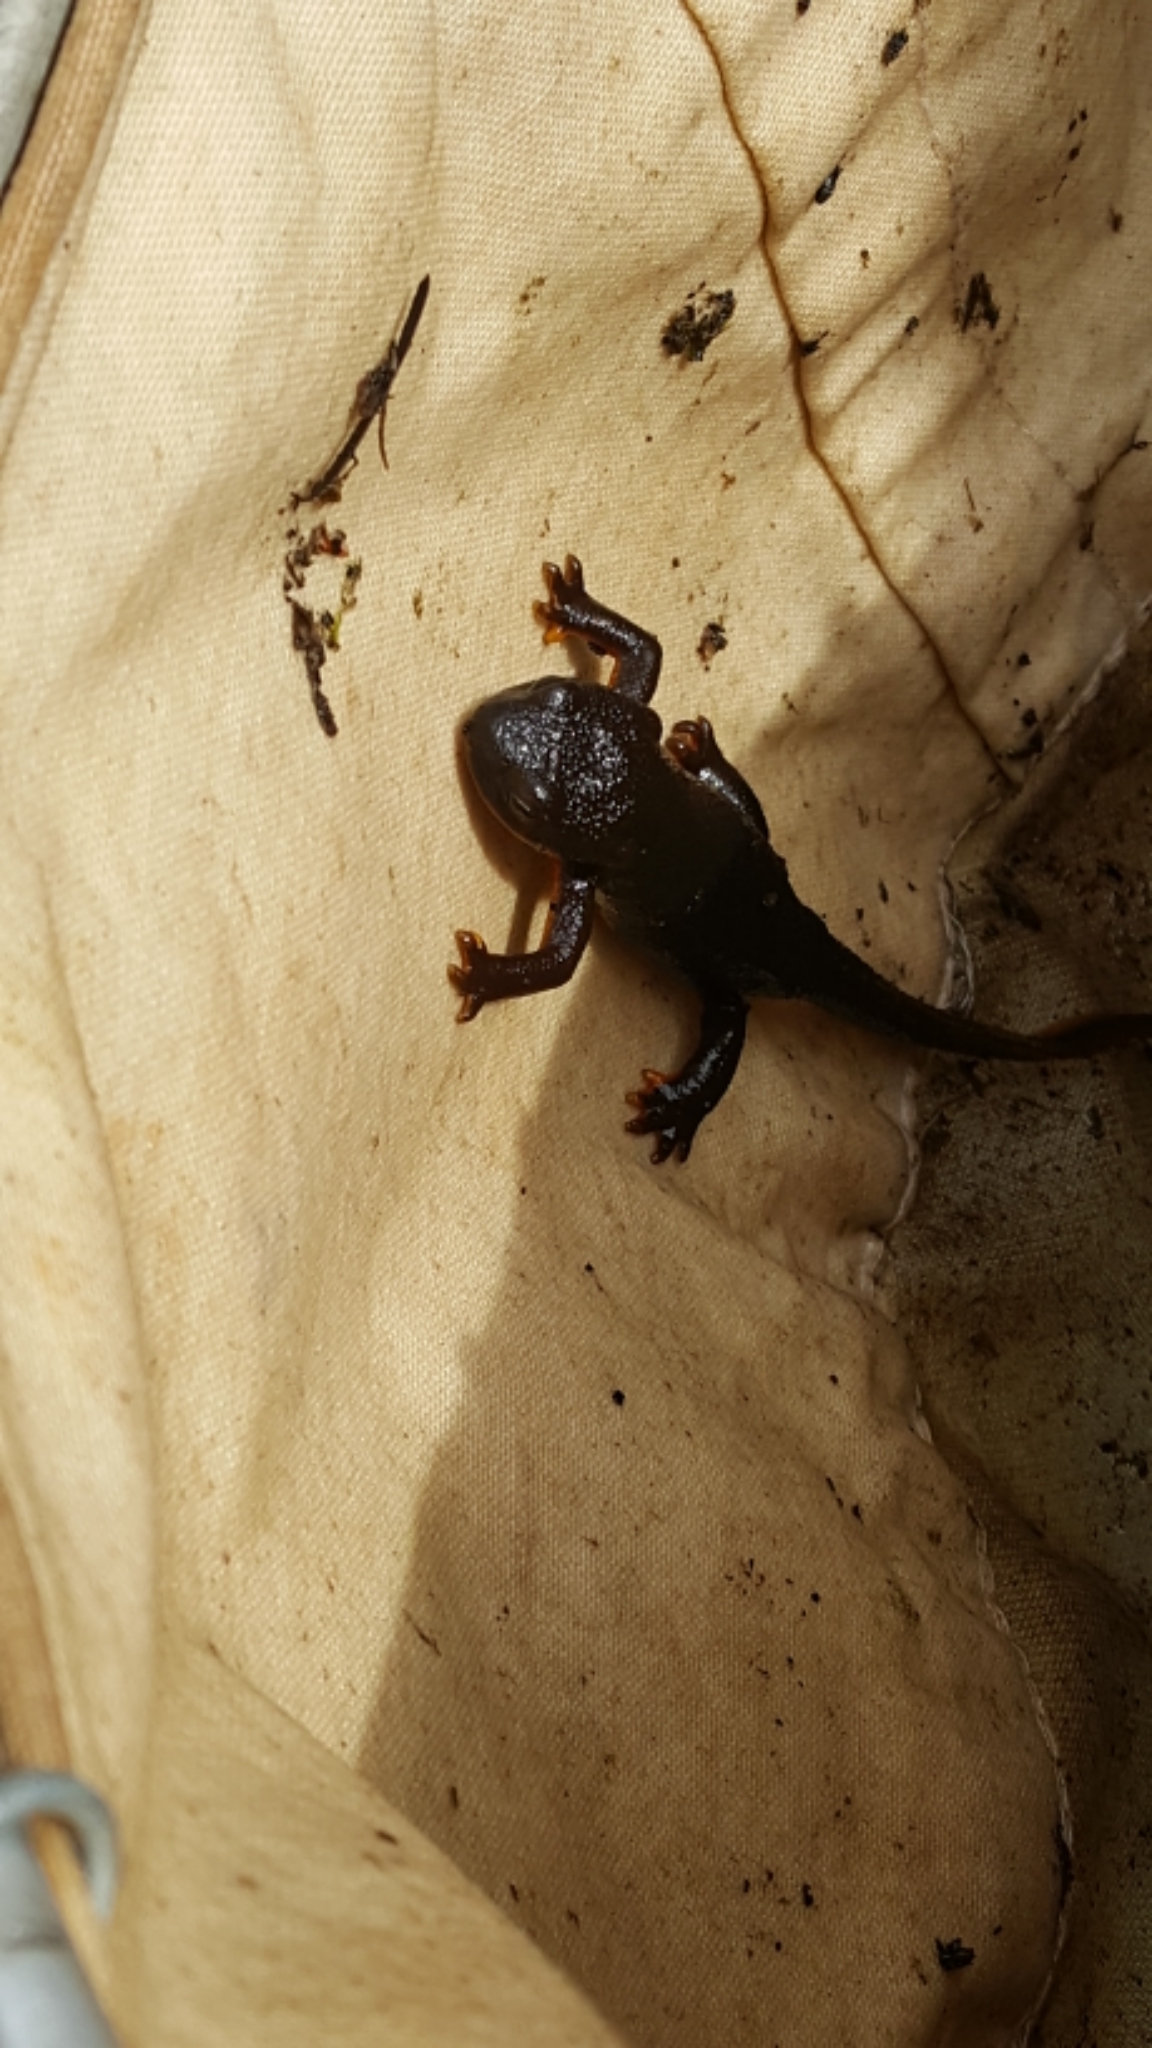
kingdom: Animalia
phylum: Chordata
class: Amphibia
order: Caudata
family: Salamandridae
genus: Taricha
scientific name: Taricha granulosa
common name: Roughskin newt
